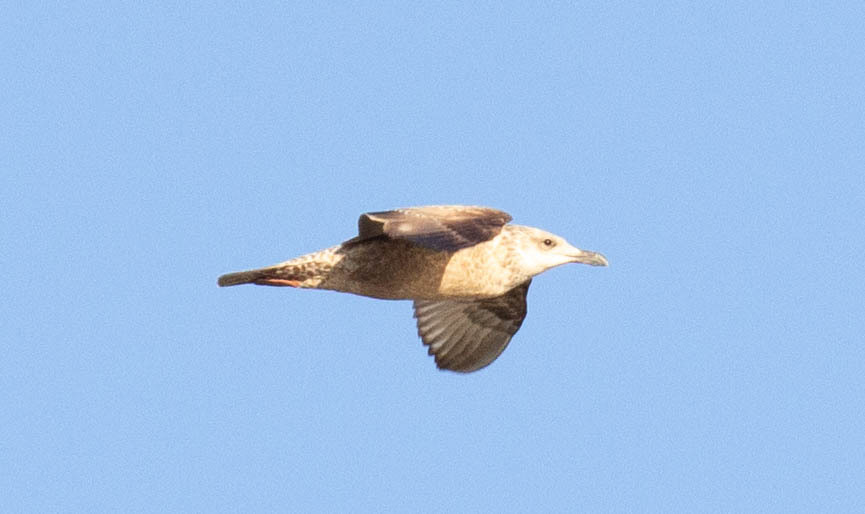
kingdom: Animalia
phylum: Chordata
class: Aves
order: Charadriiformes
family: Laridae
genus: Larus
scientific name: Larus smithsonianus
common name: American herring gull
